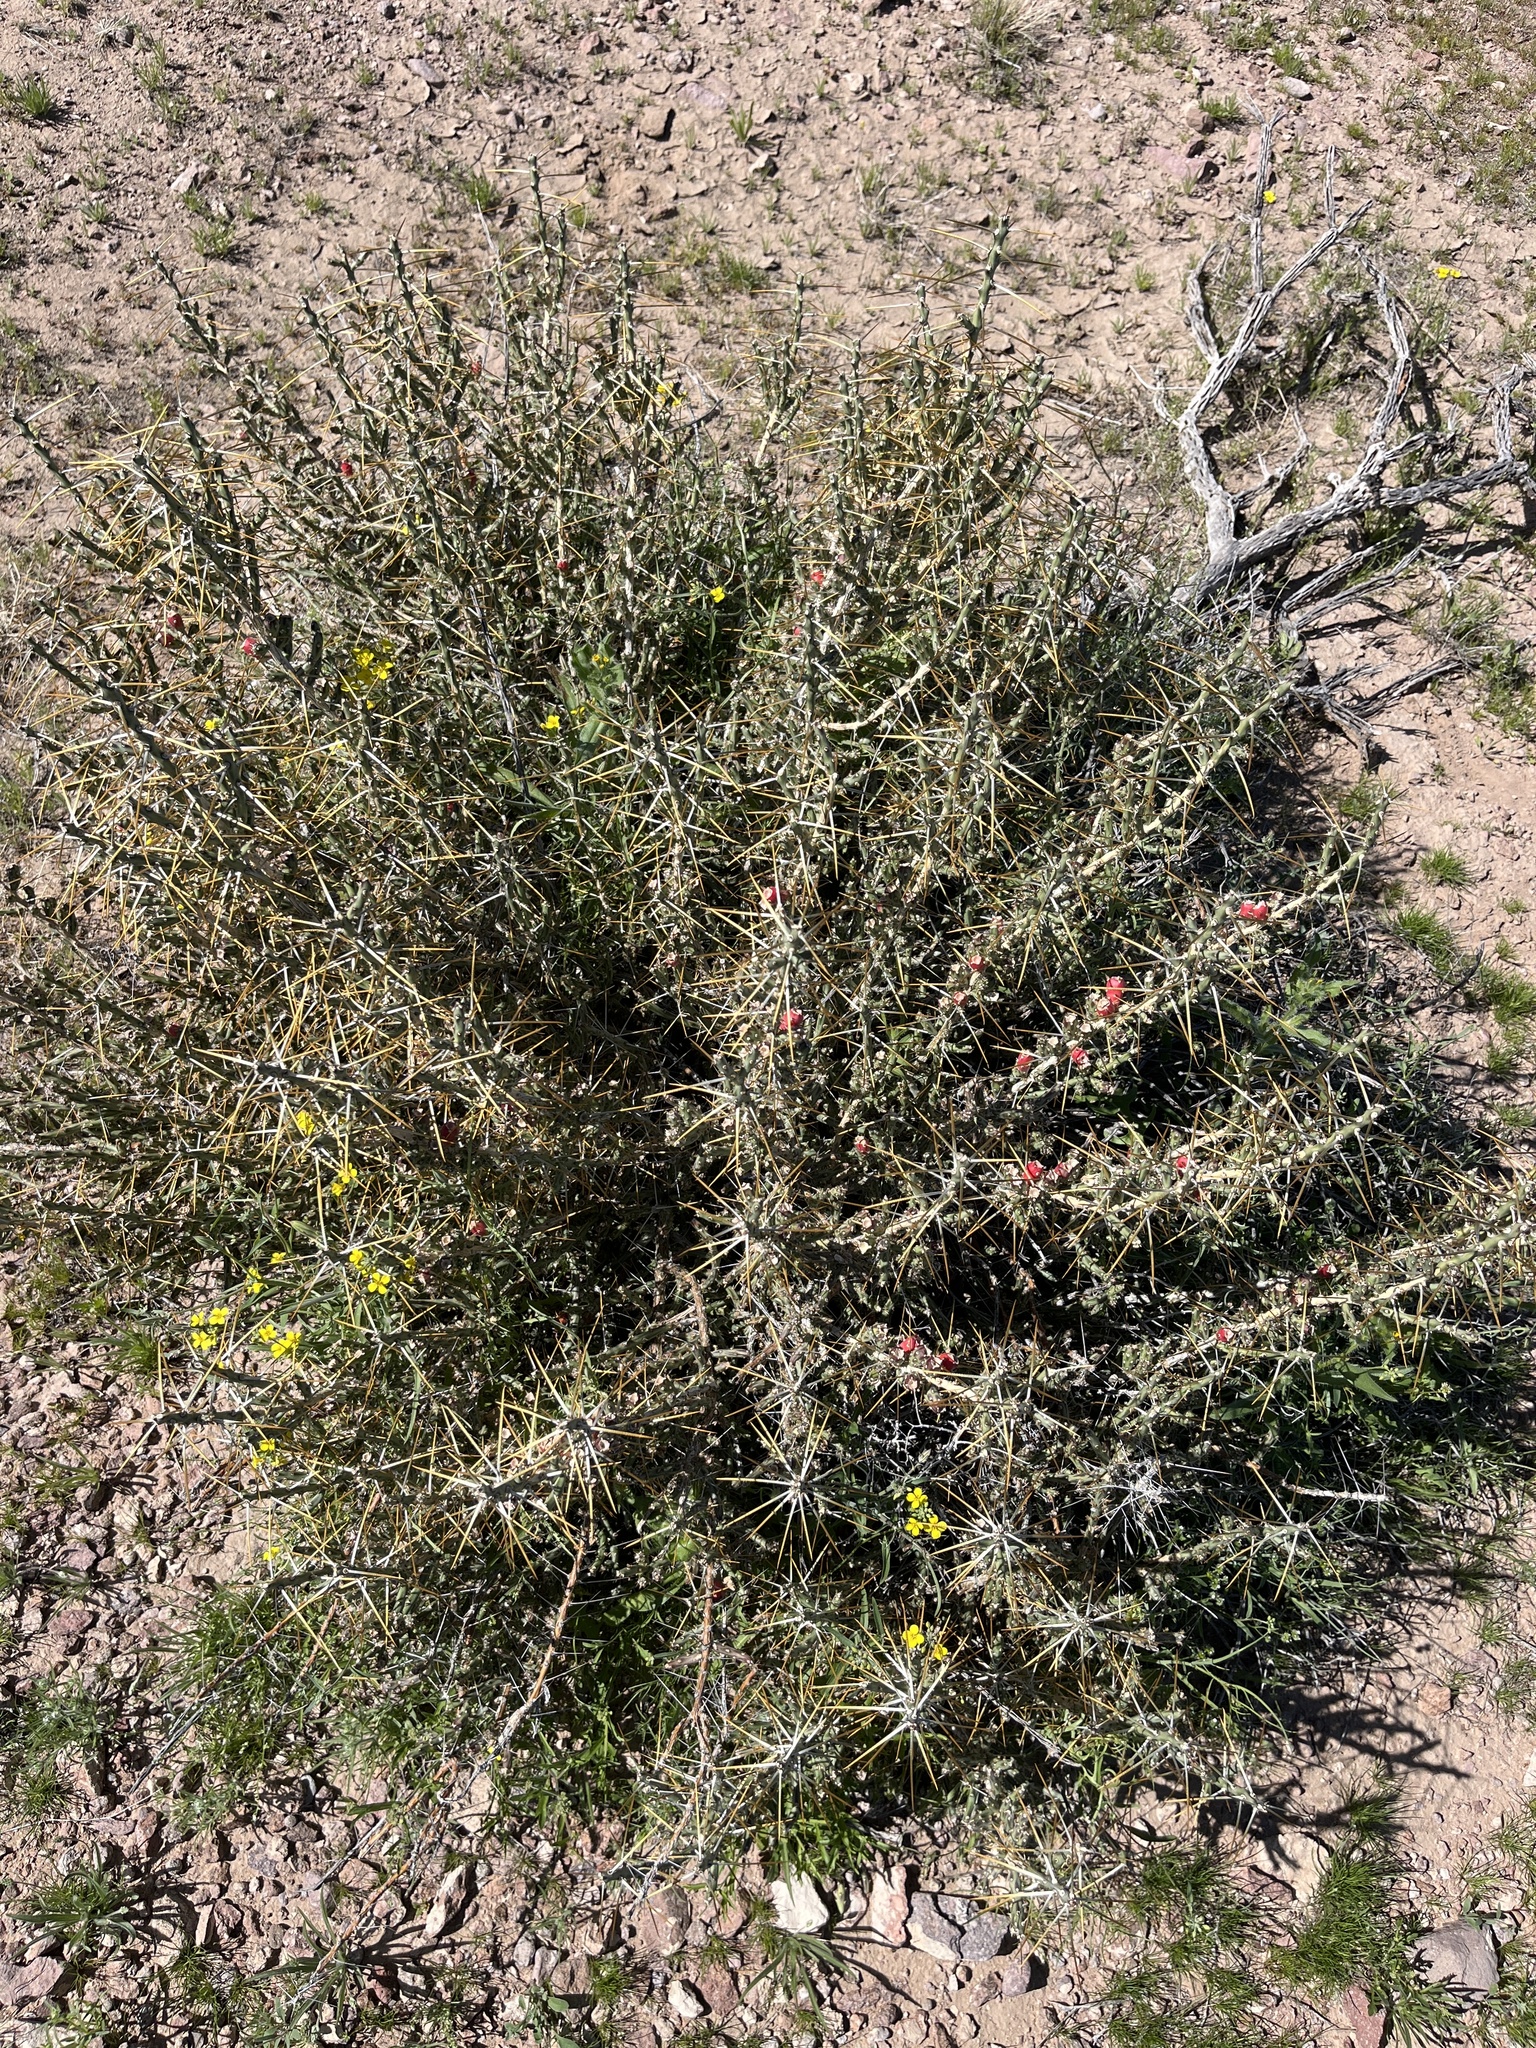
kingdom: Plantae
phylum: Tracheophyta
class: Magnoliopsida
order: Caryophyllales
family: Cactaceae
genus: Cylindropuntia
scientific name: Cylindropuntia leptocaulis
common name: Christmas cactus
